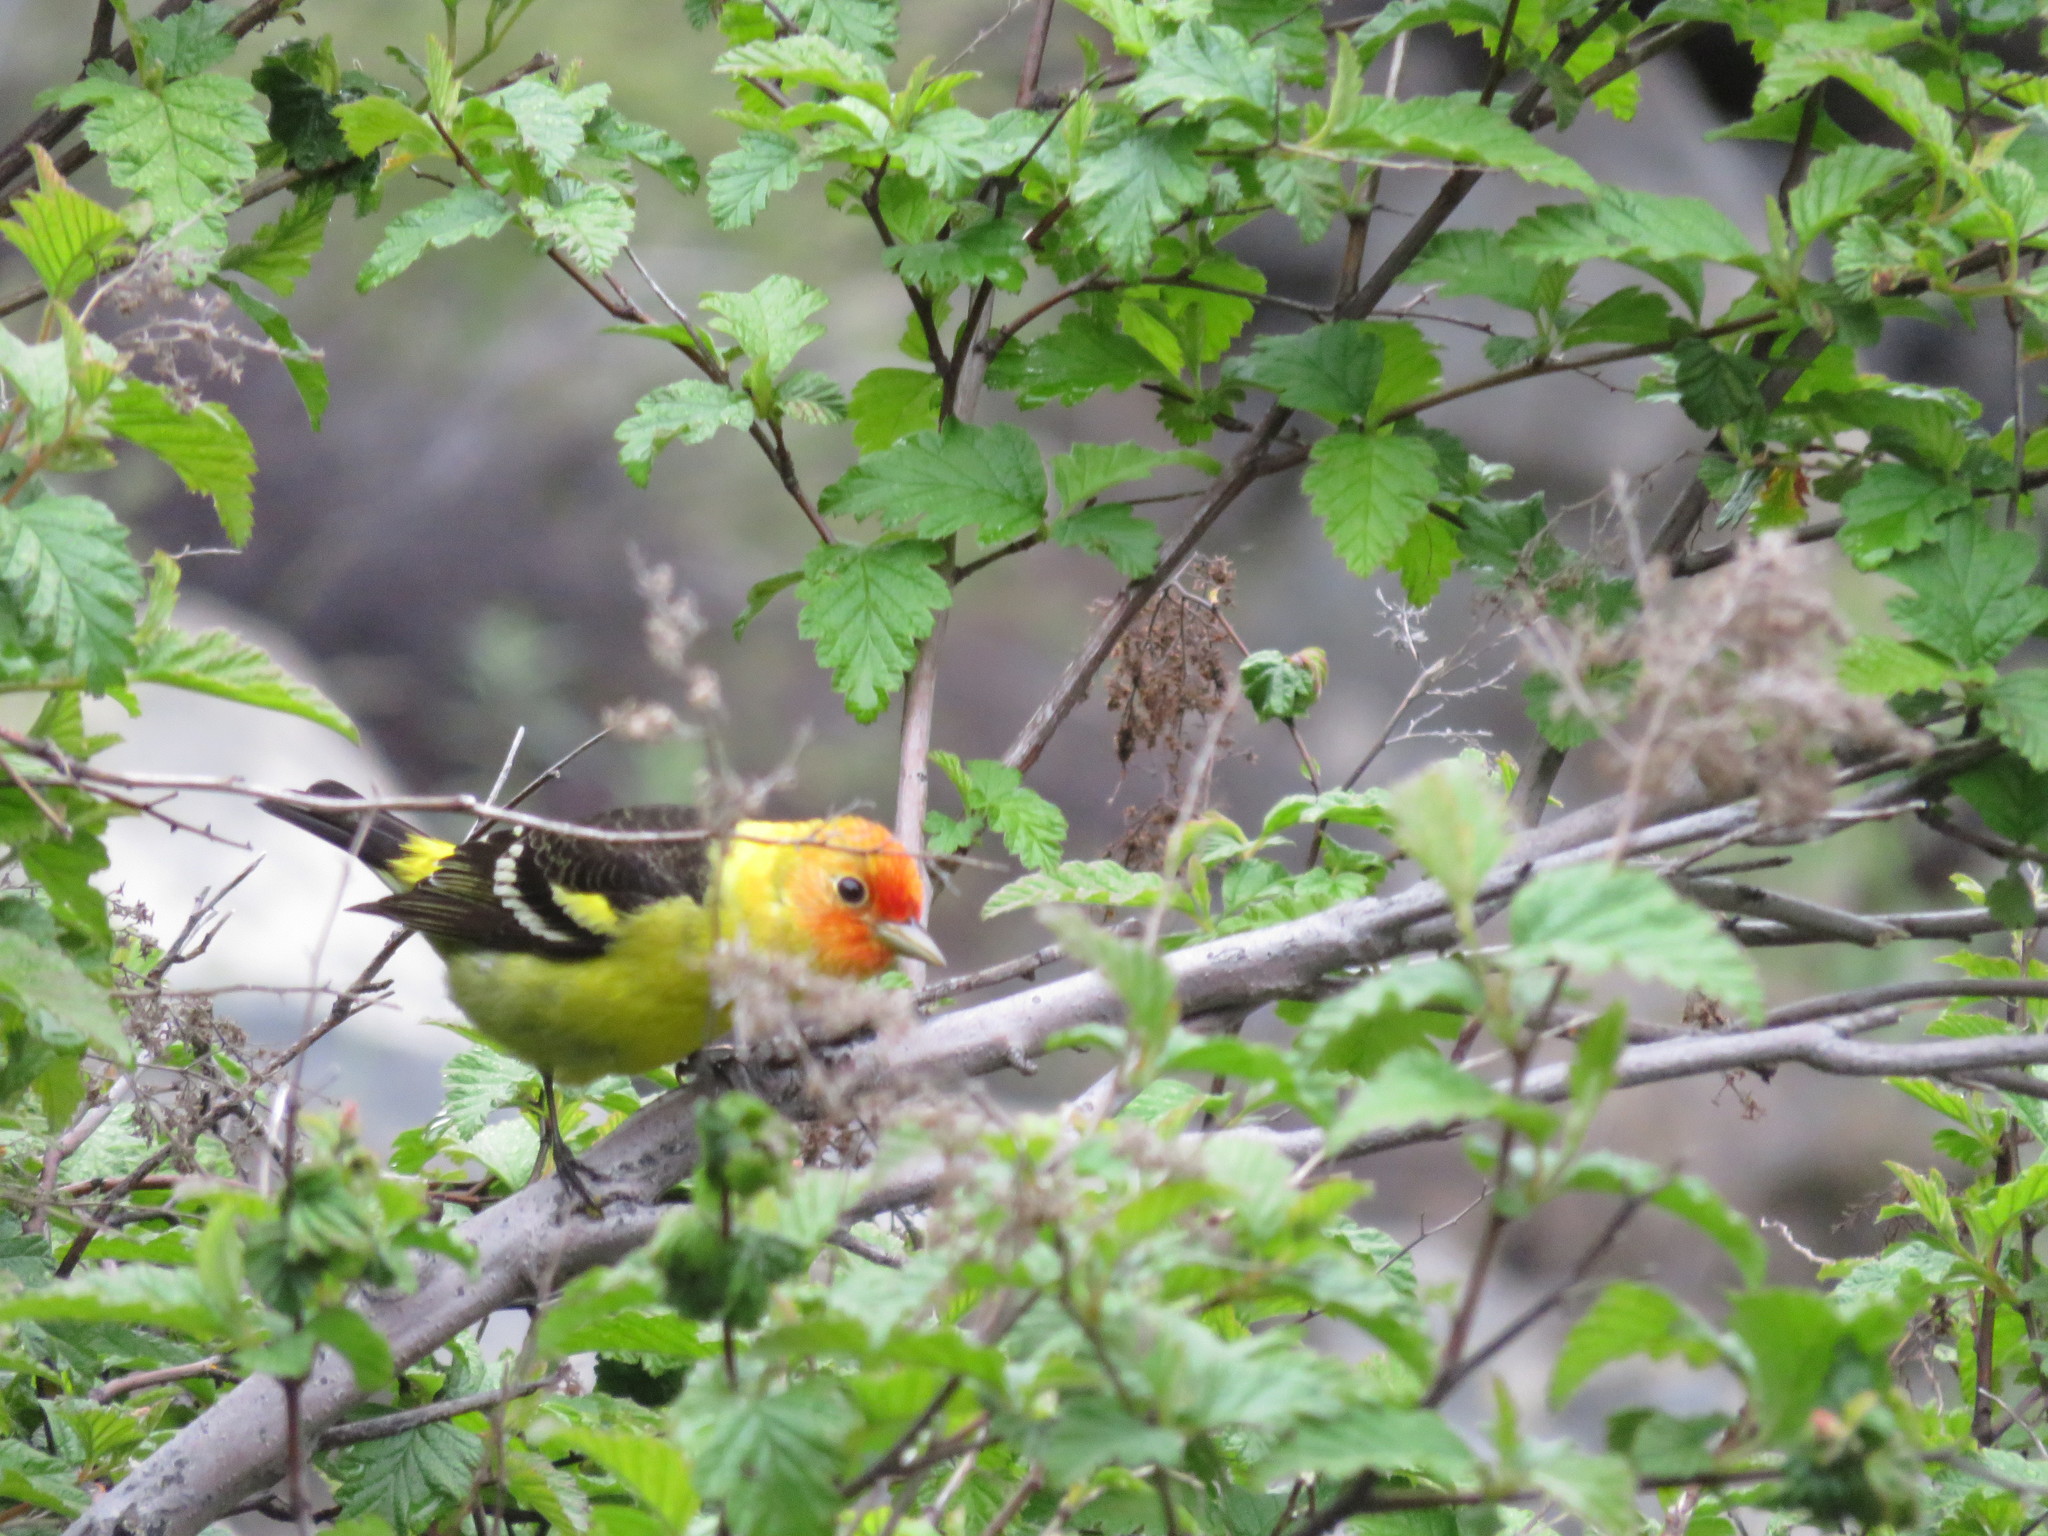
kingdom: Animalia
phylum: Chordata
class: Aves
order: Passeriformes
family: Cardinalidae
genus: Piranga
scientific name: Piranga ludoviciana
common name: Western tanager
